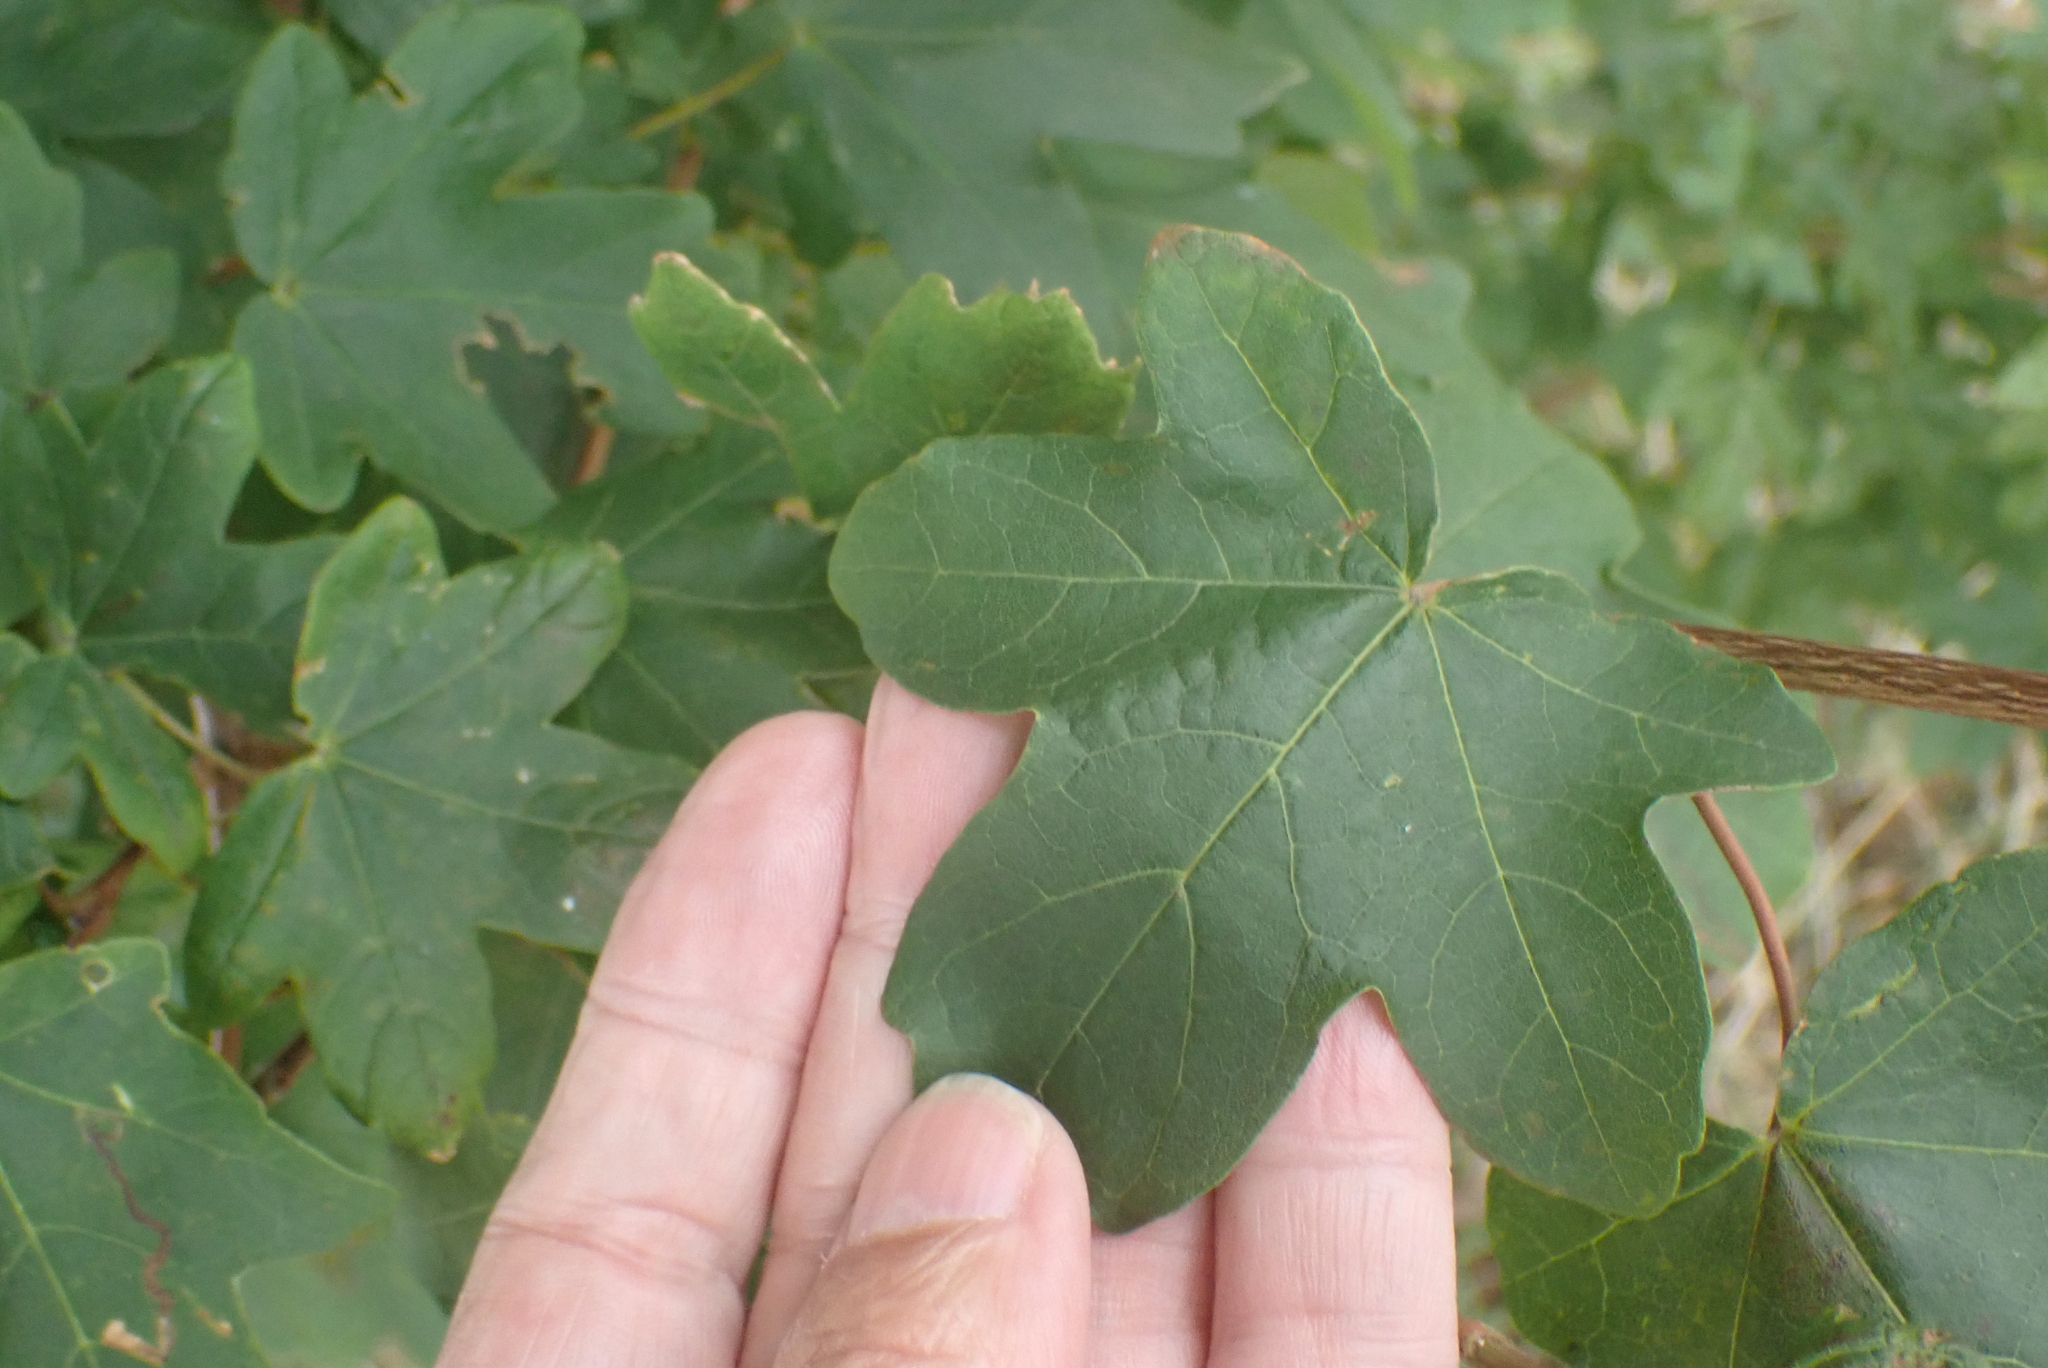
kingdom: Plantae
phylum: Tracheophyta
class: Magnoliopsida
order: Sapindales
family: Sapindaceae
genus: Acer
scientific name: Acer campestre
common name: Field maple
